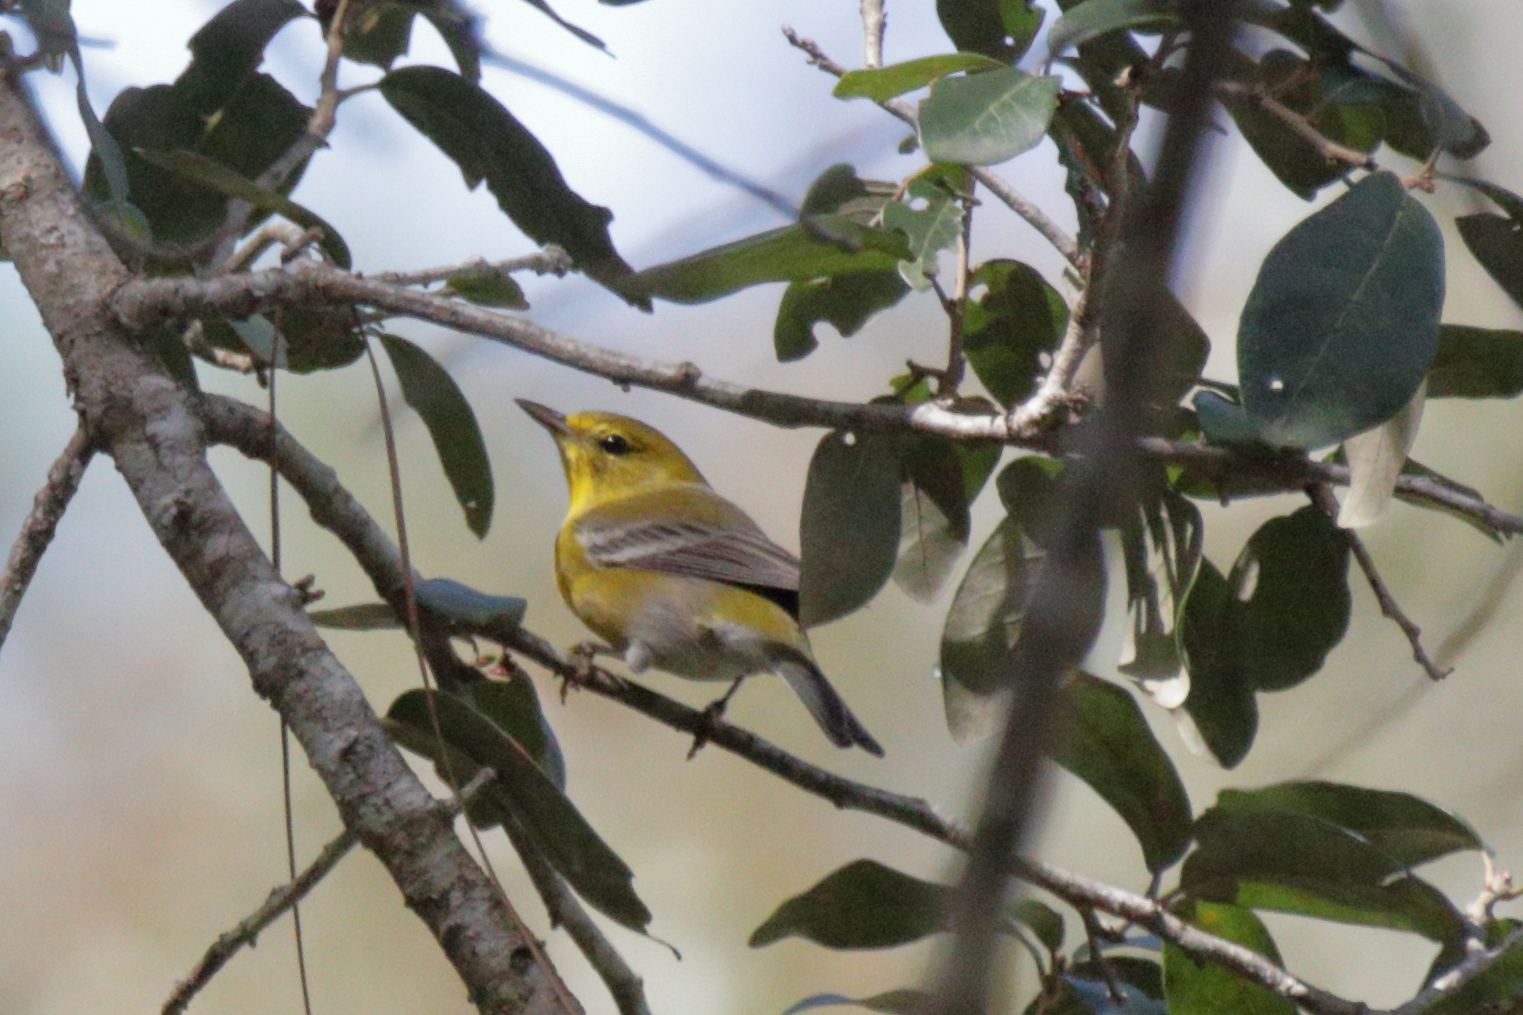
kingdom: Animalia
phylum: Chordata
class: Aves
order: Passeriformes
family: Parulidae
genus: Setophaga
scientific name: Setophaga pinus
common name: Pine warbler
